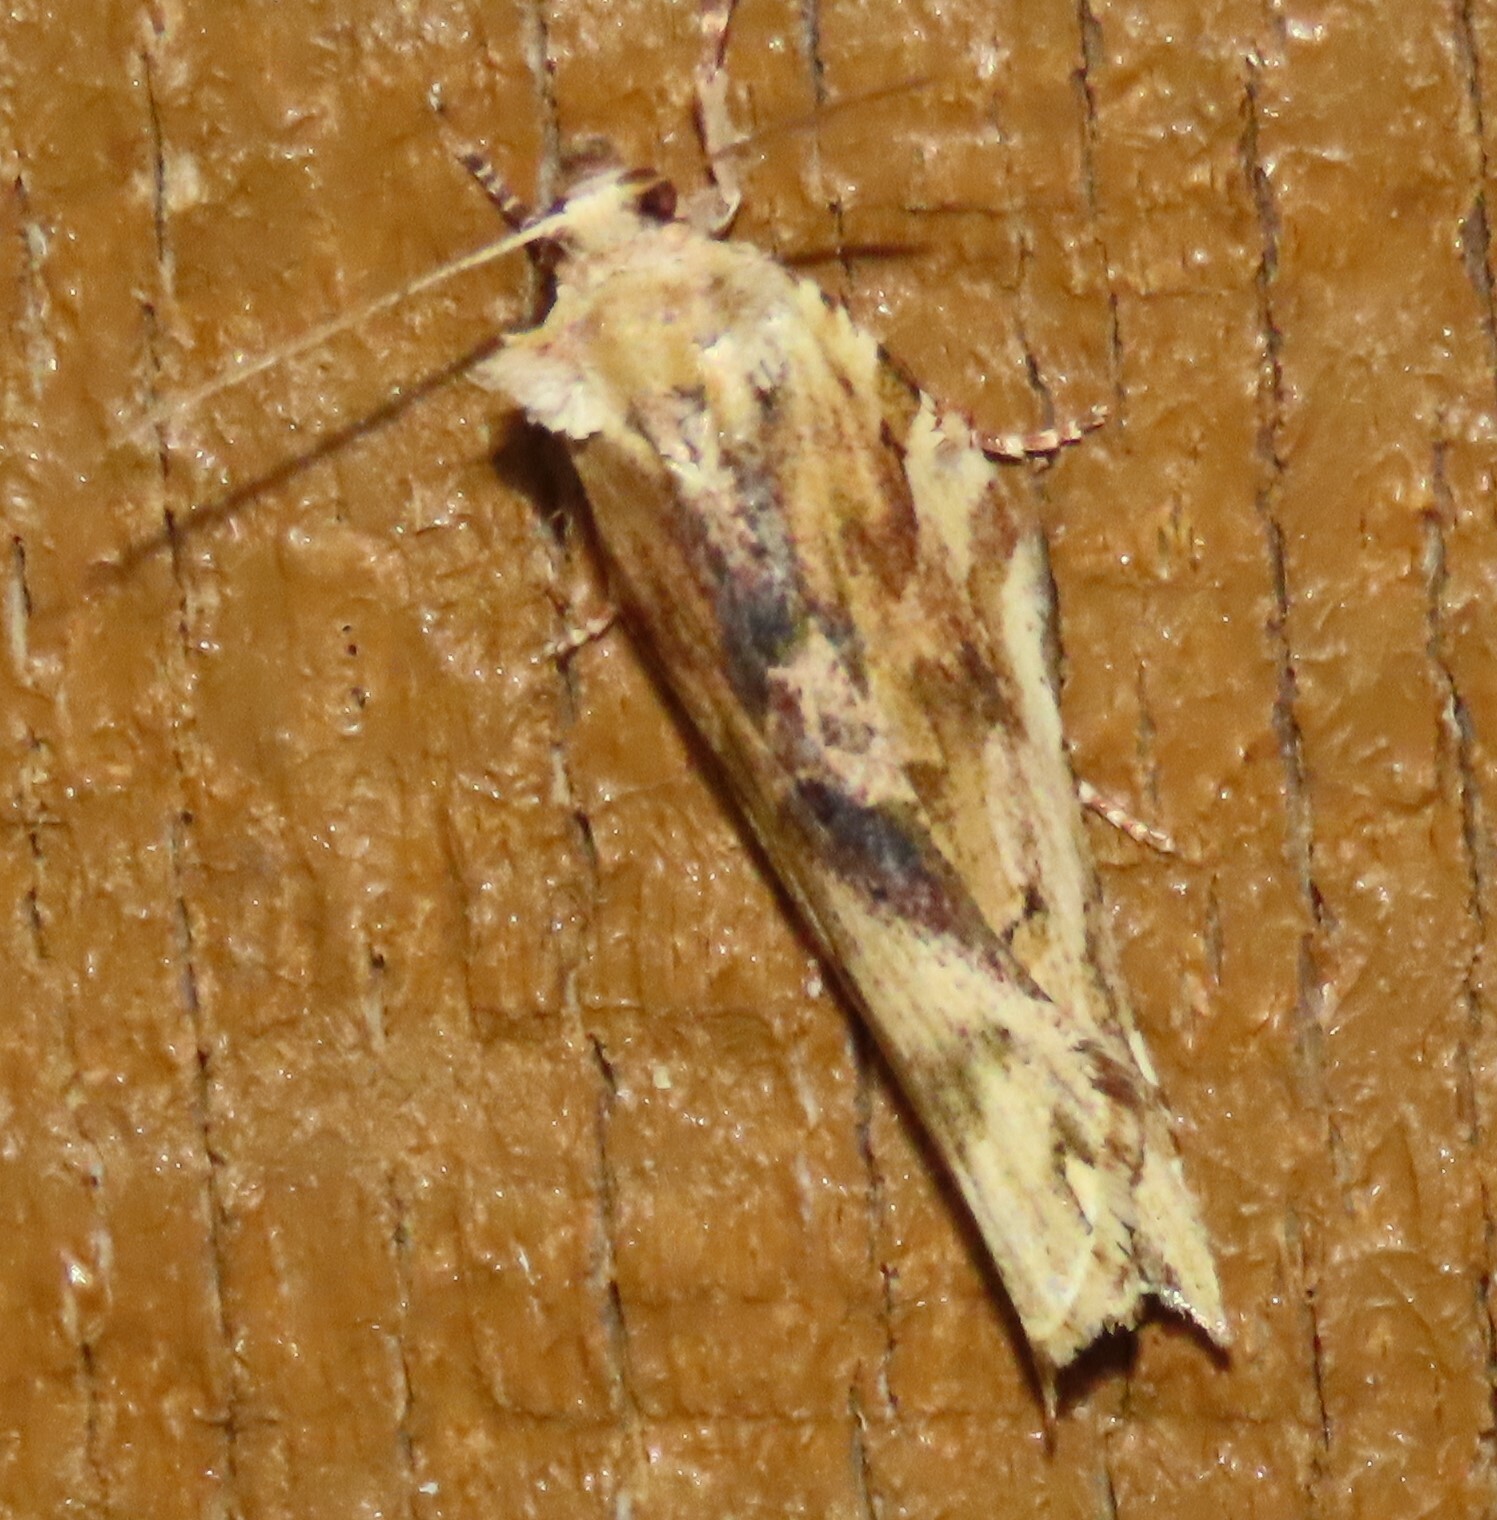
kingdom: Animalia
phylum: Arthropoda
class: Insecta
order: Lepidoptera
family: Tortricidae
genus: Epalxiphora
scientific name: Epalxiphora axenana
